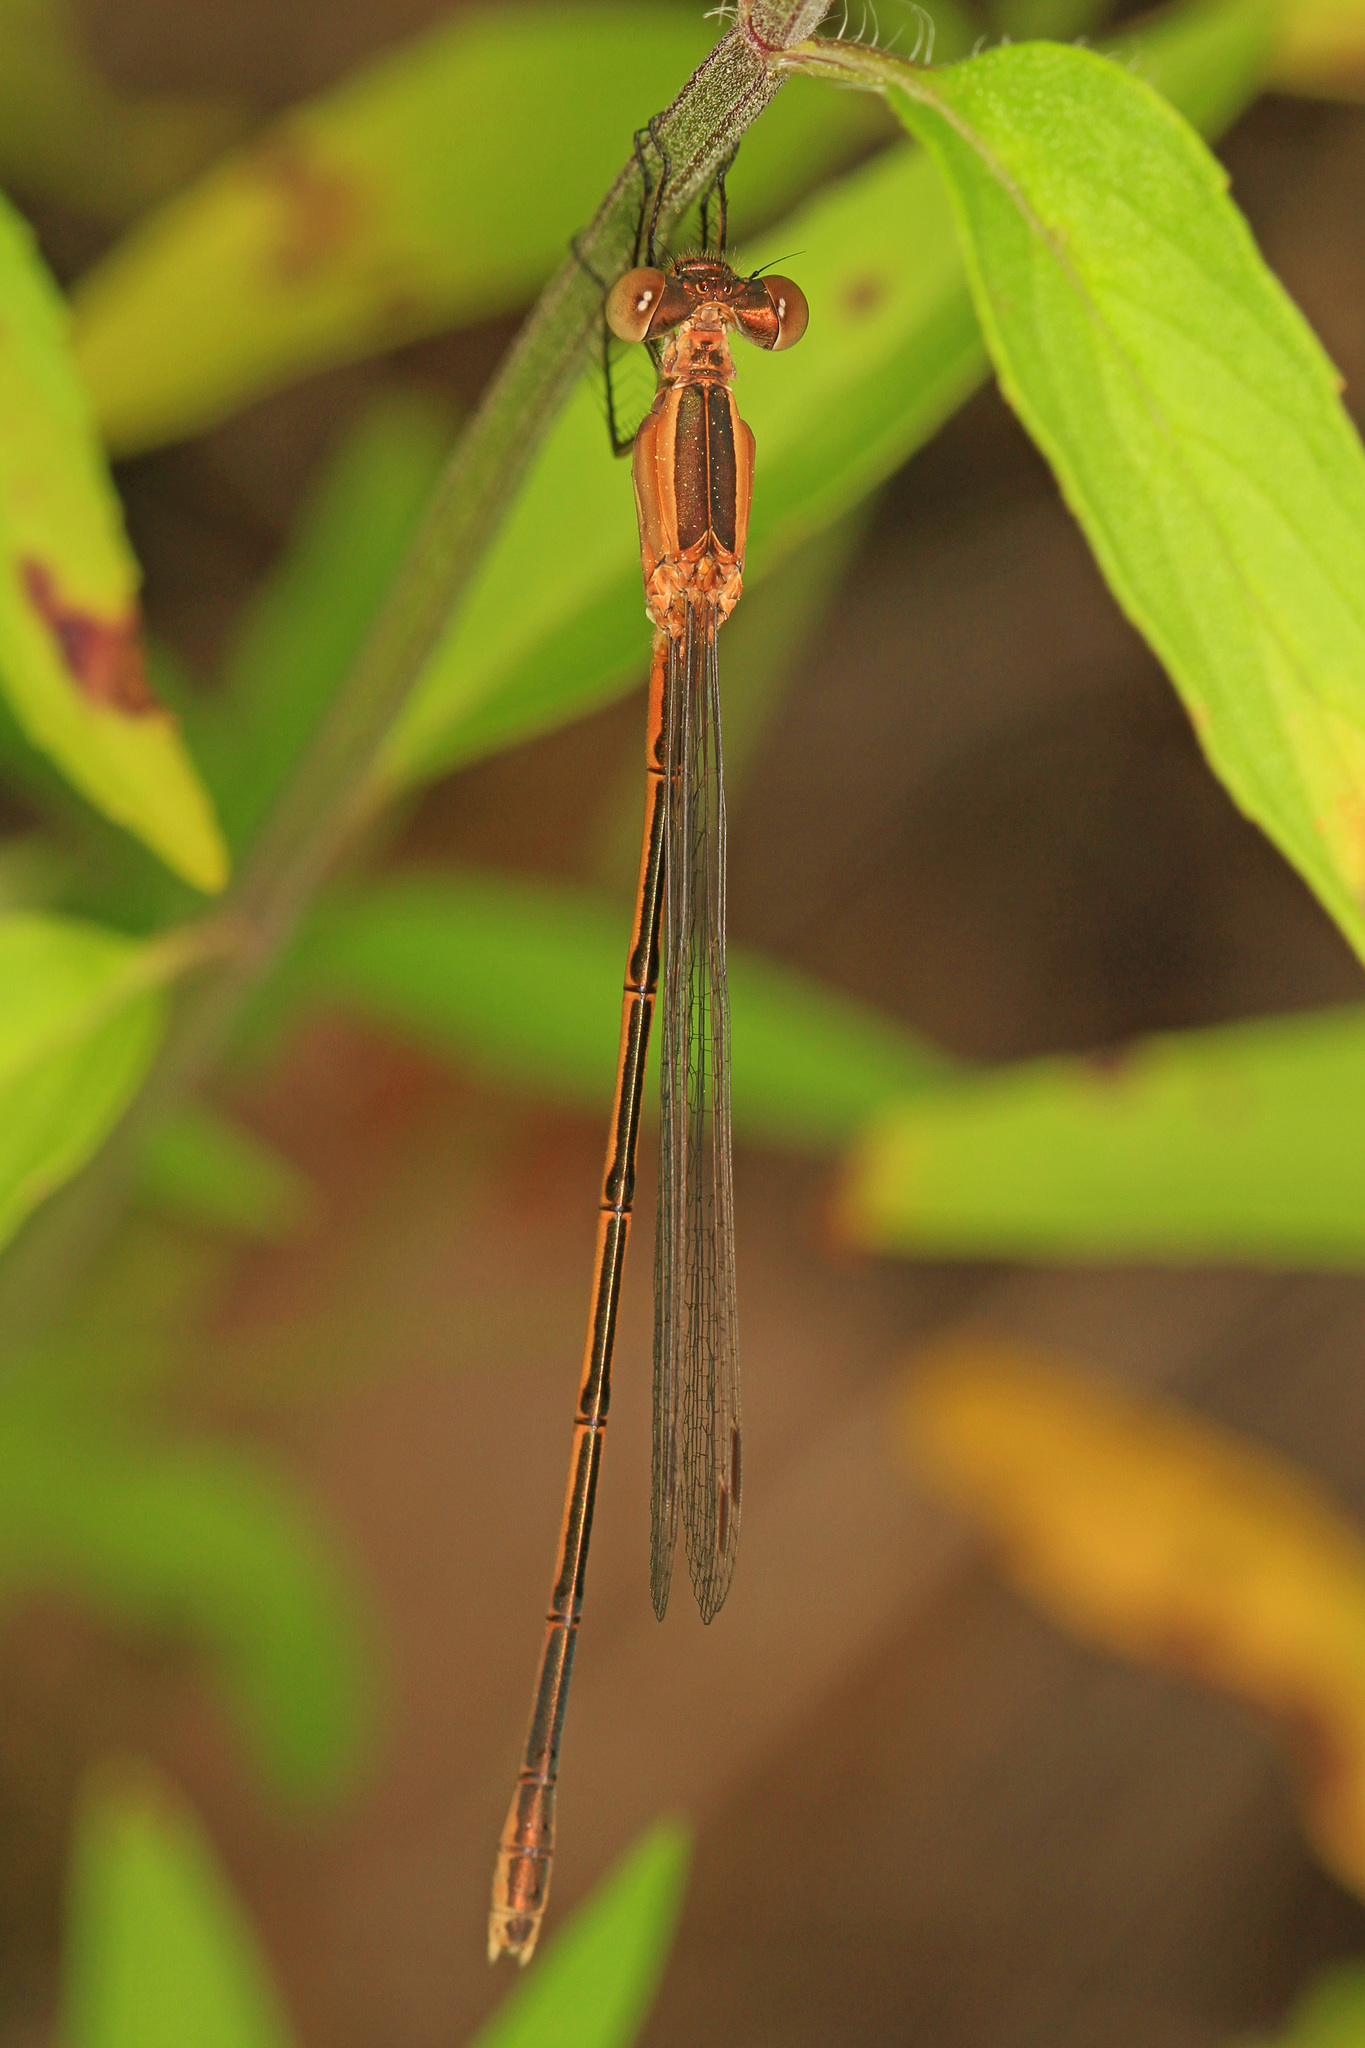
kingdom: Animalia
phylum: Arthropoda
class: Insecta
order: Odonata
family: Lestidae
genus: Lestes
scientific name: Lestes alacer
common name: Plateau spreadwing
